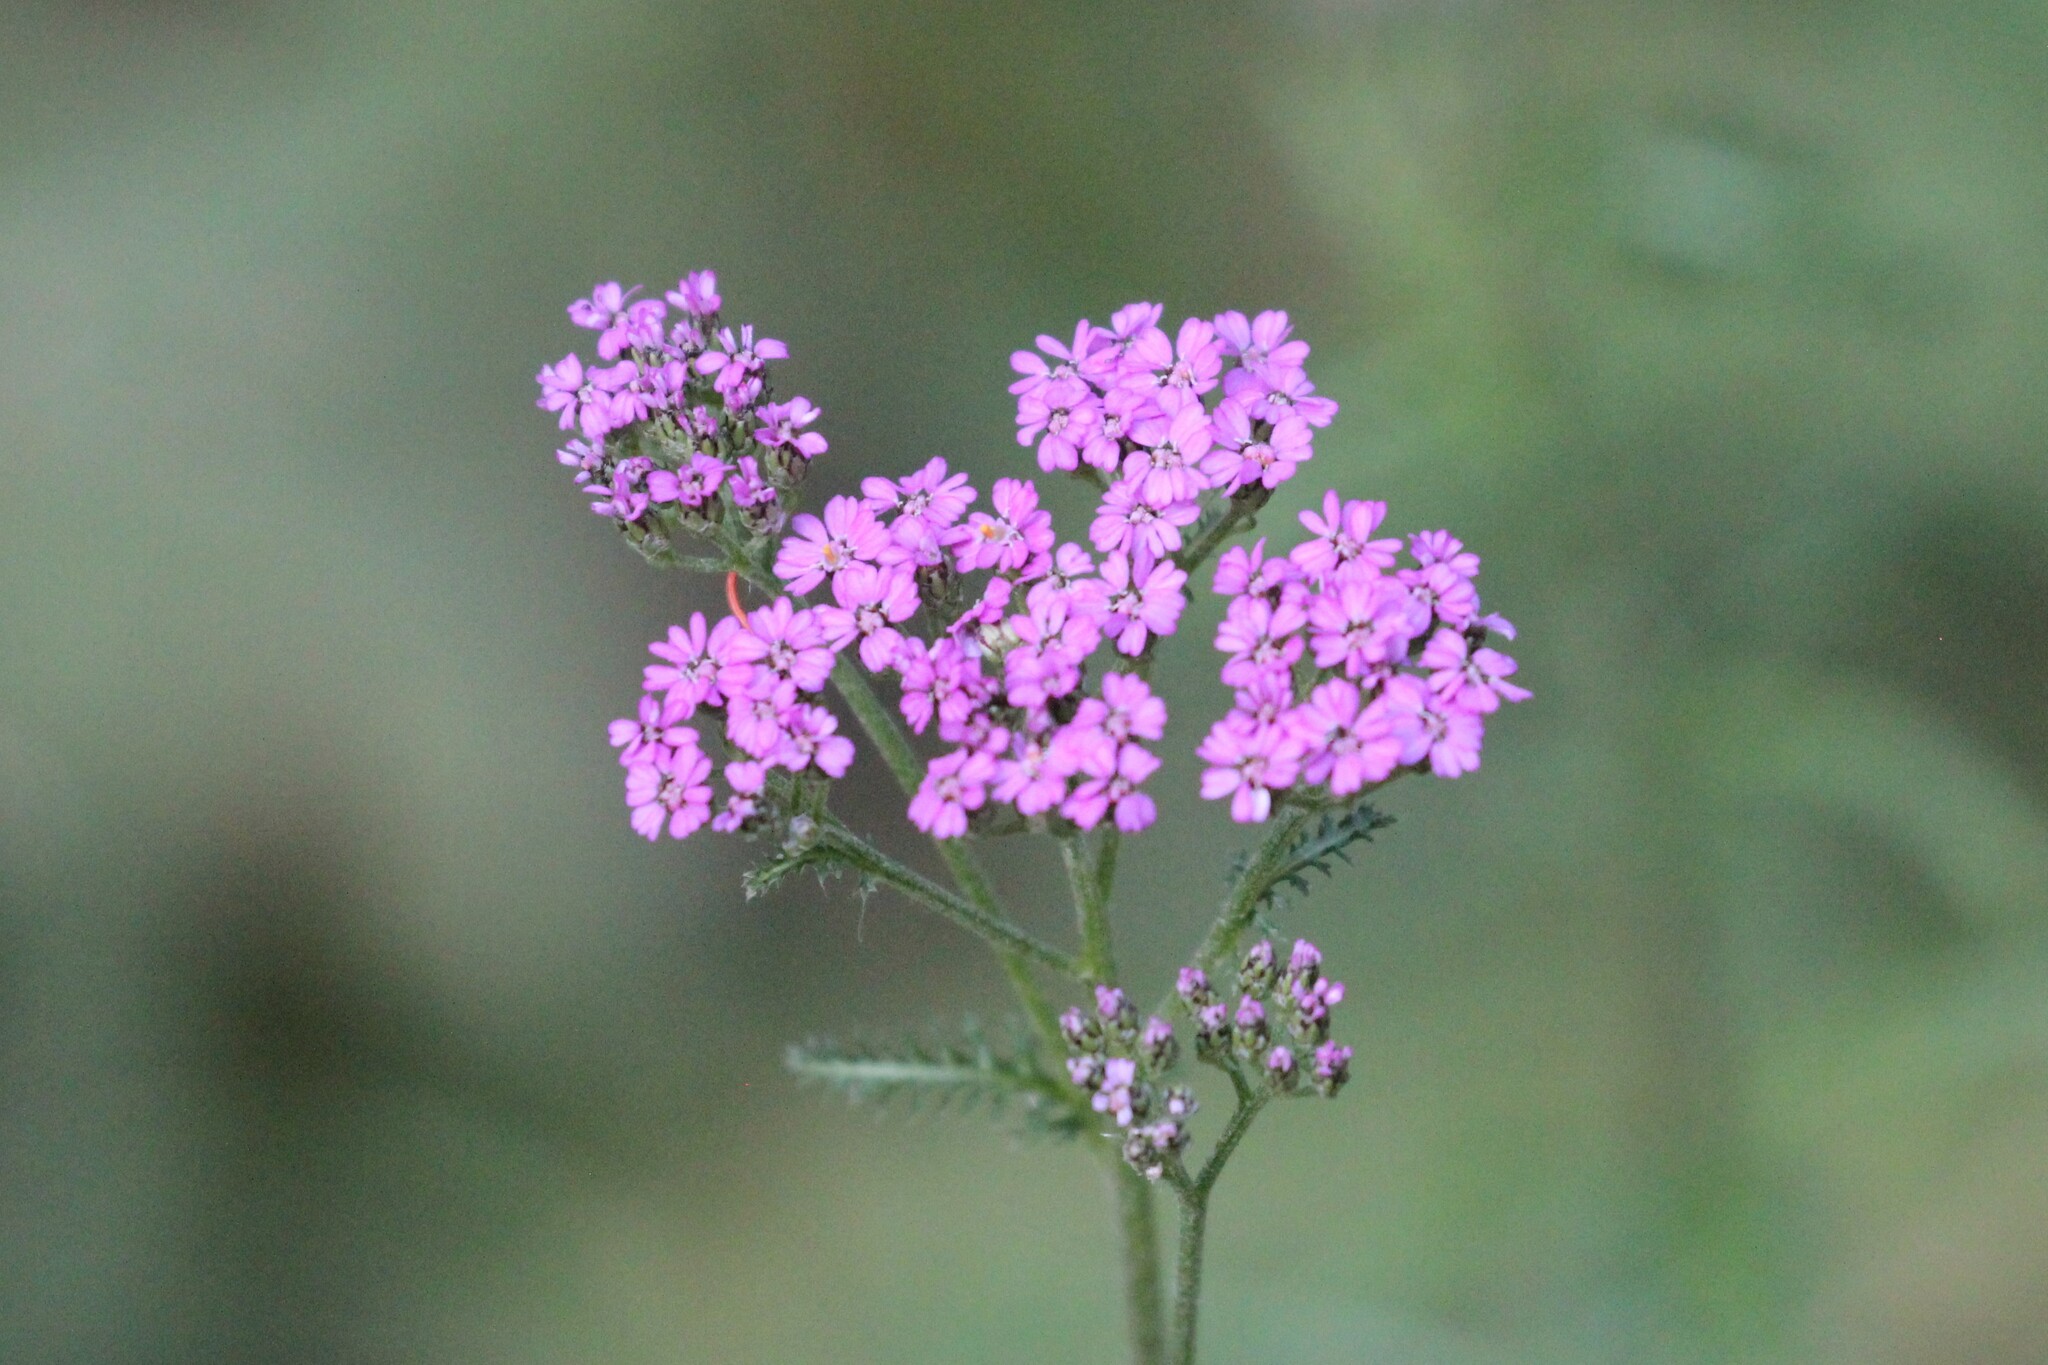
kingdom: Plantae
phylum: Tracheophyta
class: Magnoliopsida
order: Asterales
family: Asteraceae
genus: Achillea
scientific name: Achillea millefolium
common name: Yarrow
